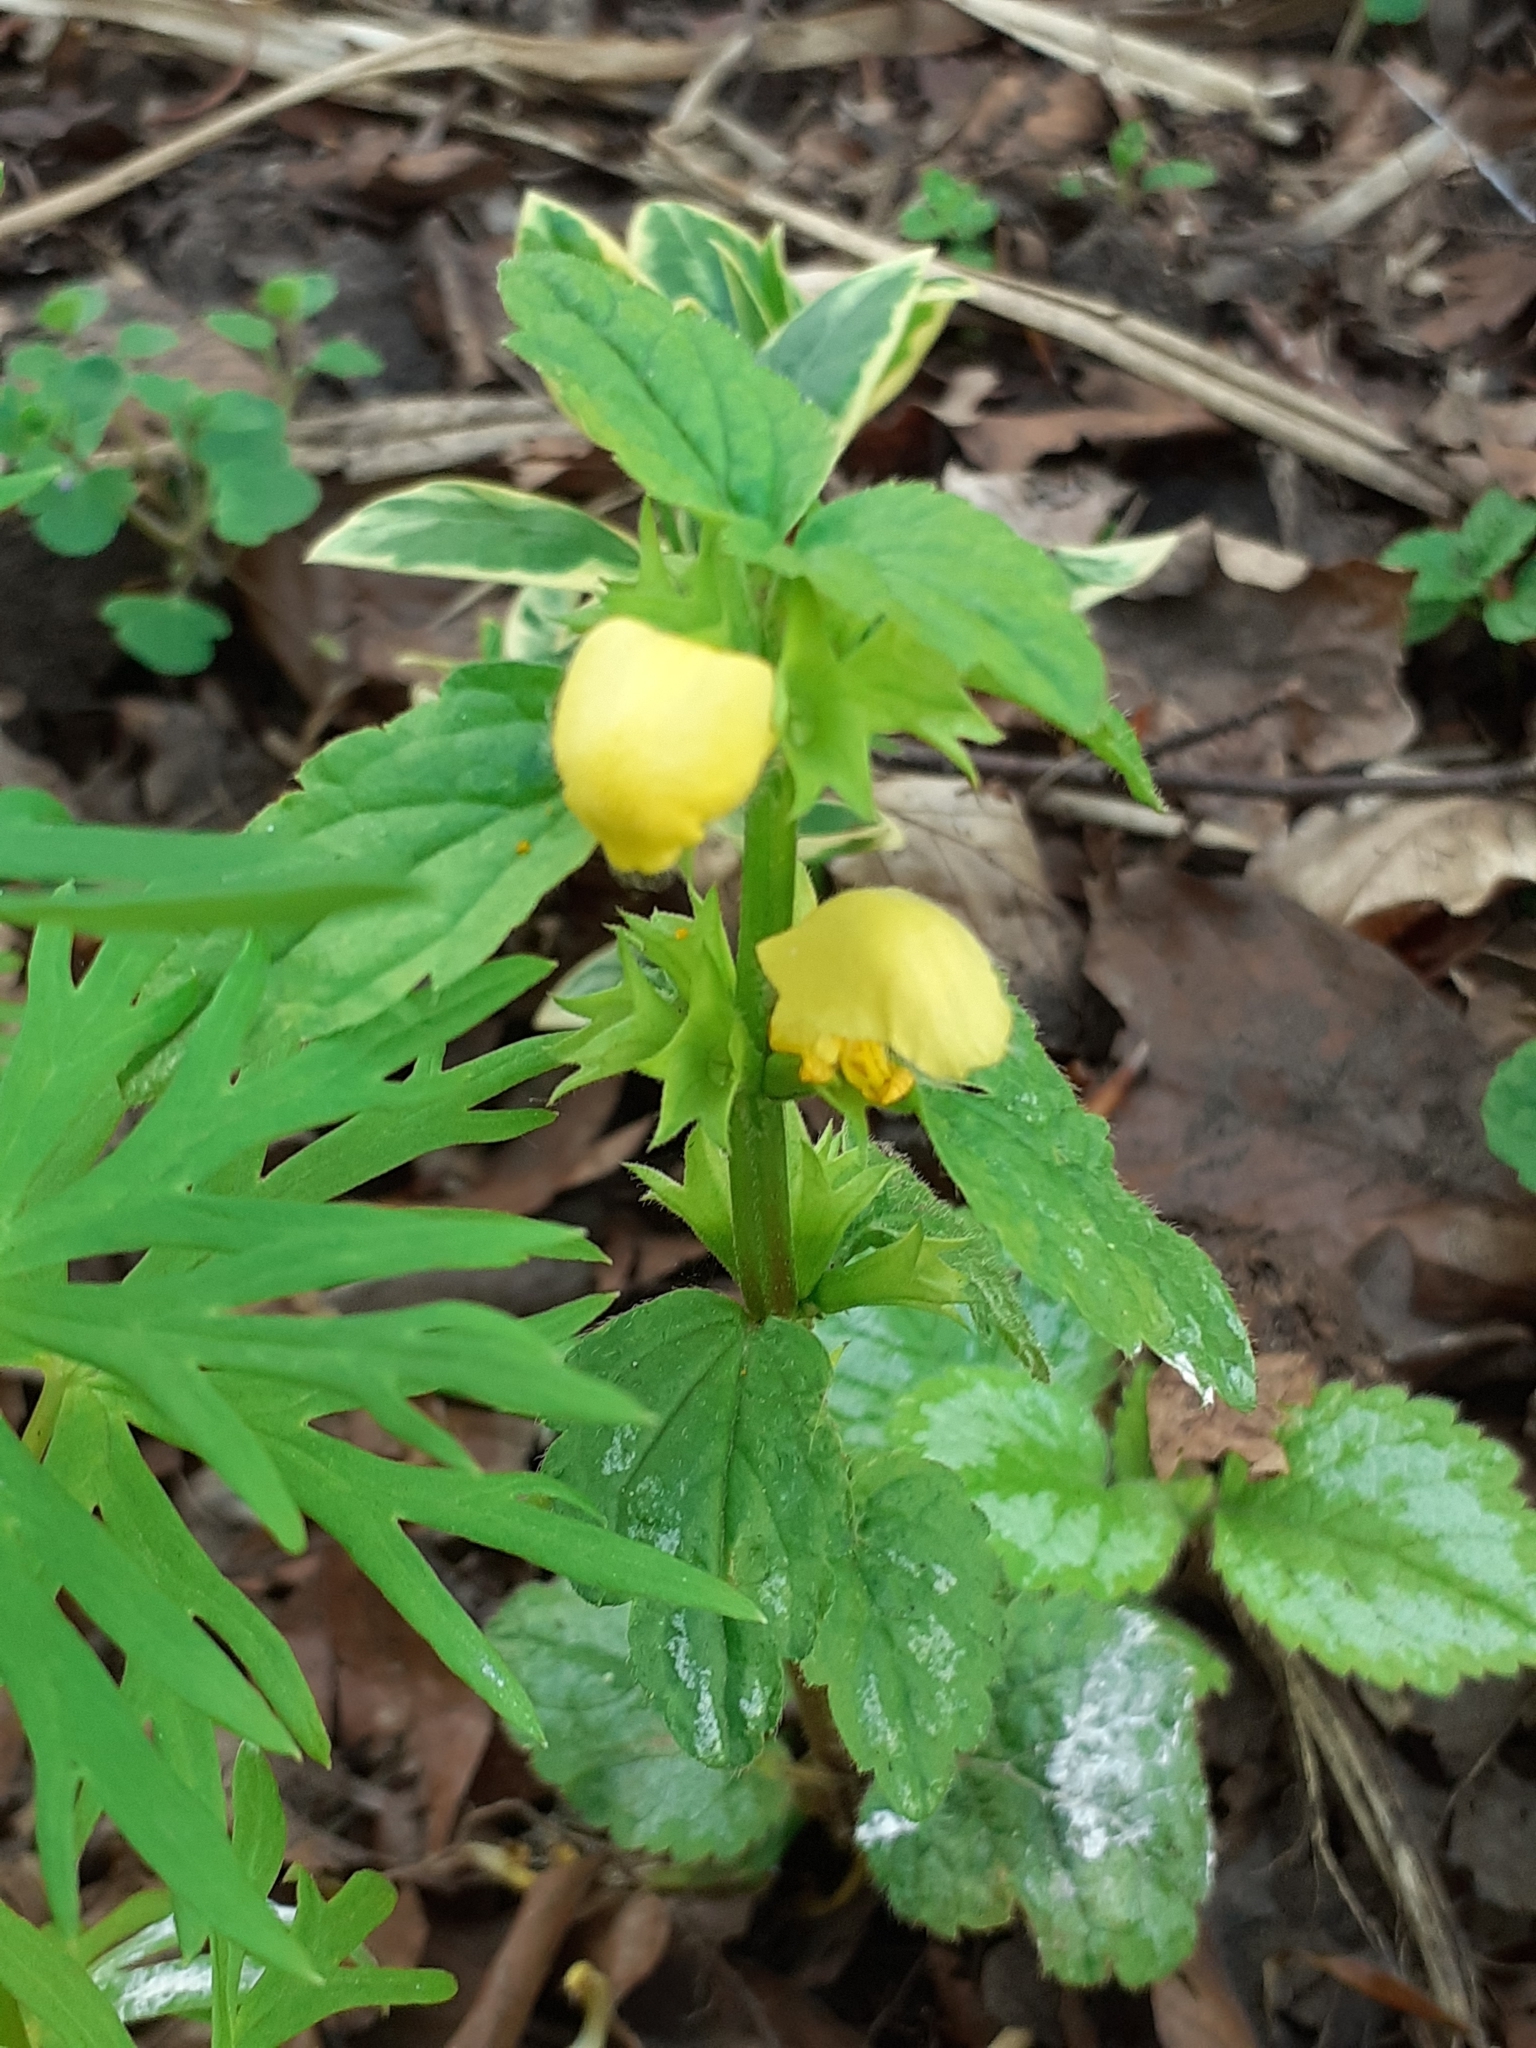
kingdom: Plantae
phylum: Tracheophyta
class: Magnoliopsida
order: Lamiales
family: Lamiaceae
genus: Lamium
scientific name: Lamium galeobdolon
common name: Yellow archangel
